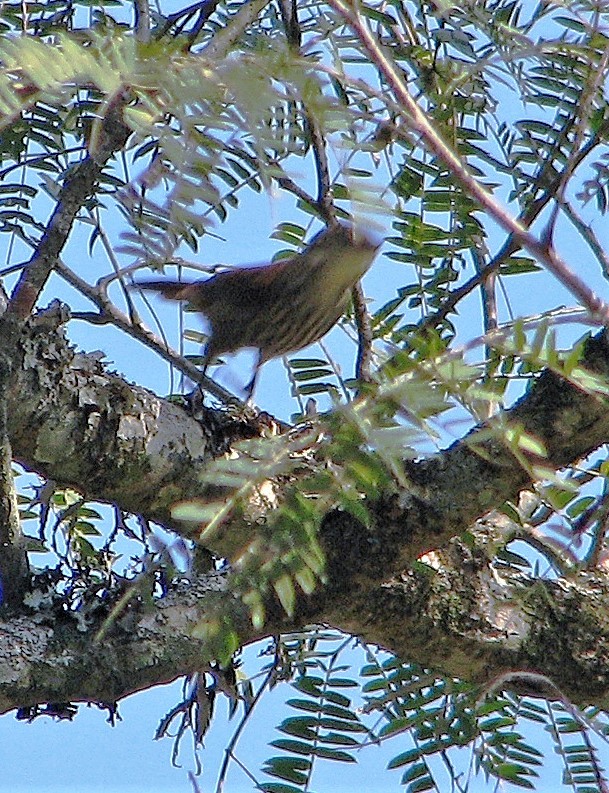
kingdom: Animalia
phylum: Chordata
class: Aves
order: Passeriformes
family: Furnariidae
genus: Xenops
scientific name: Xenops rutilans
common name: Streaked xenops
